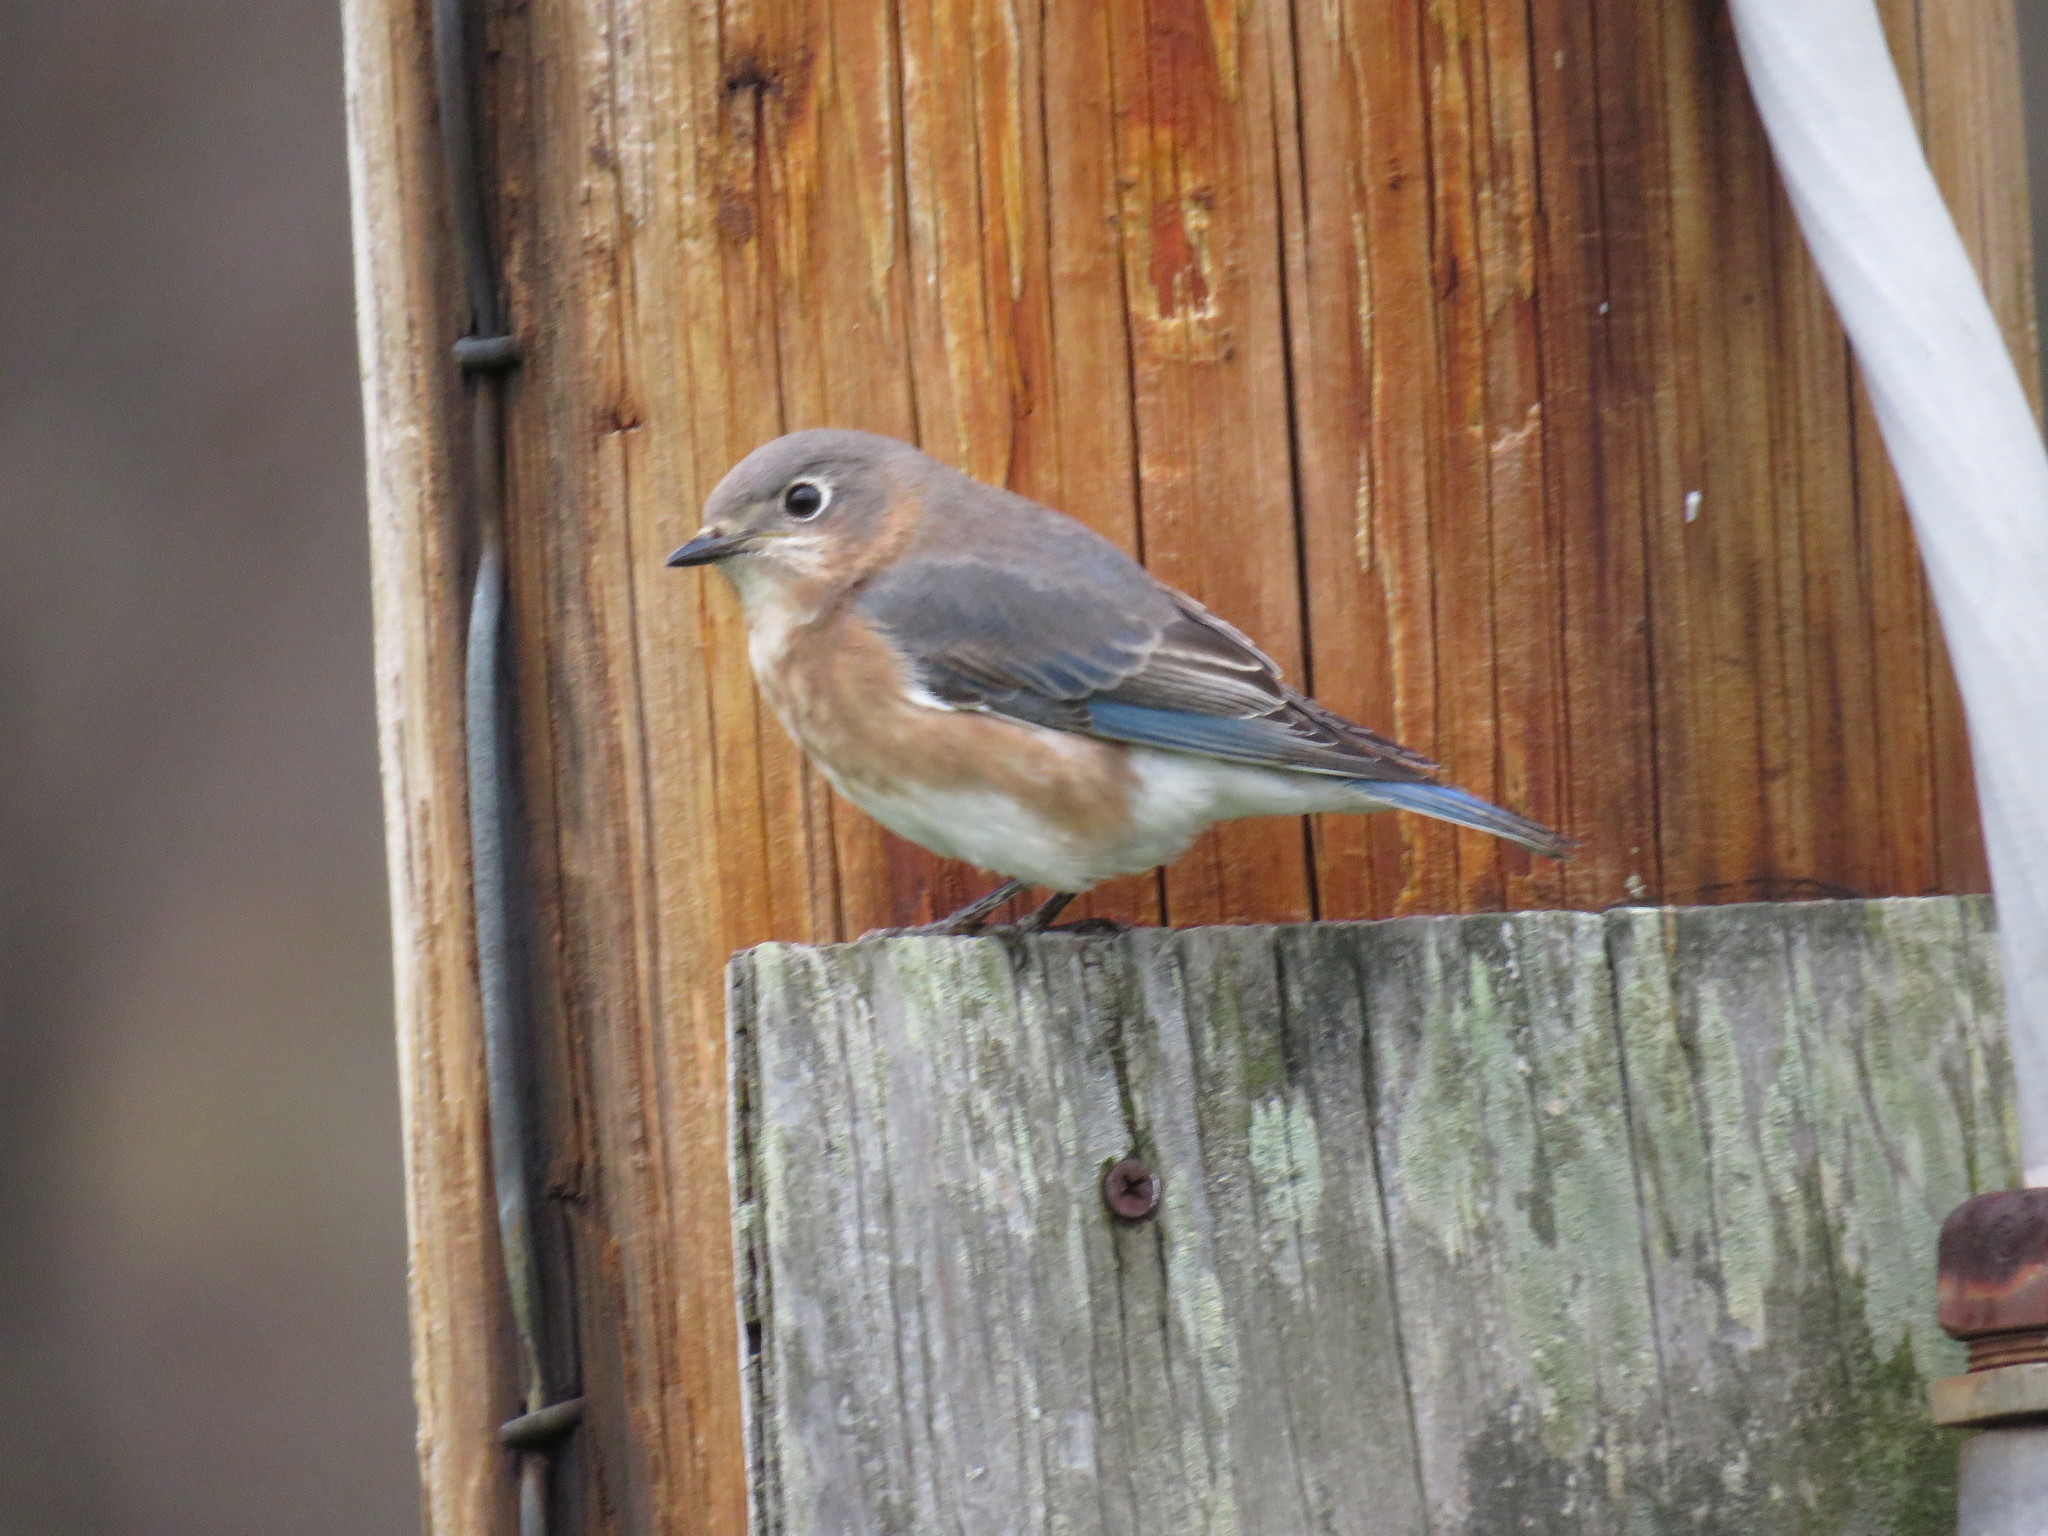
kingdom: Animalia
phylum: Chordata
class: Aves
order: Passeriformes
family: Turdidae
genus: Sialia
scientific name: Sialia sialis
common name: Eastern bluebird
